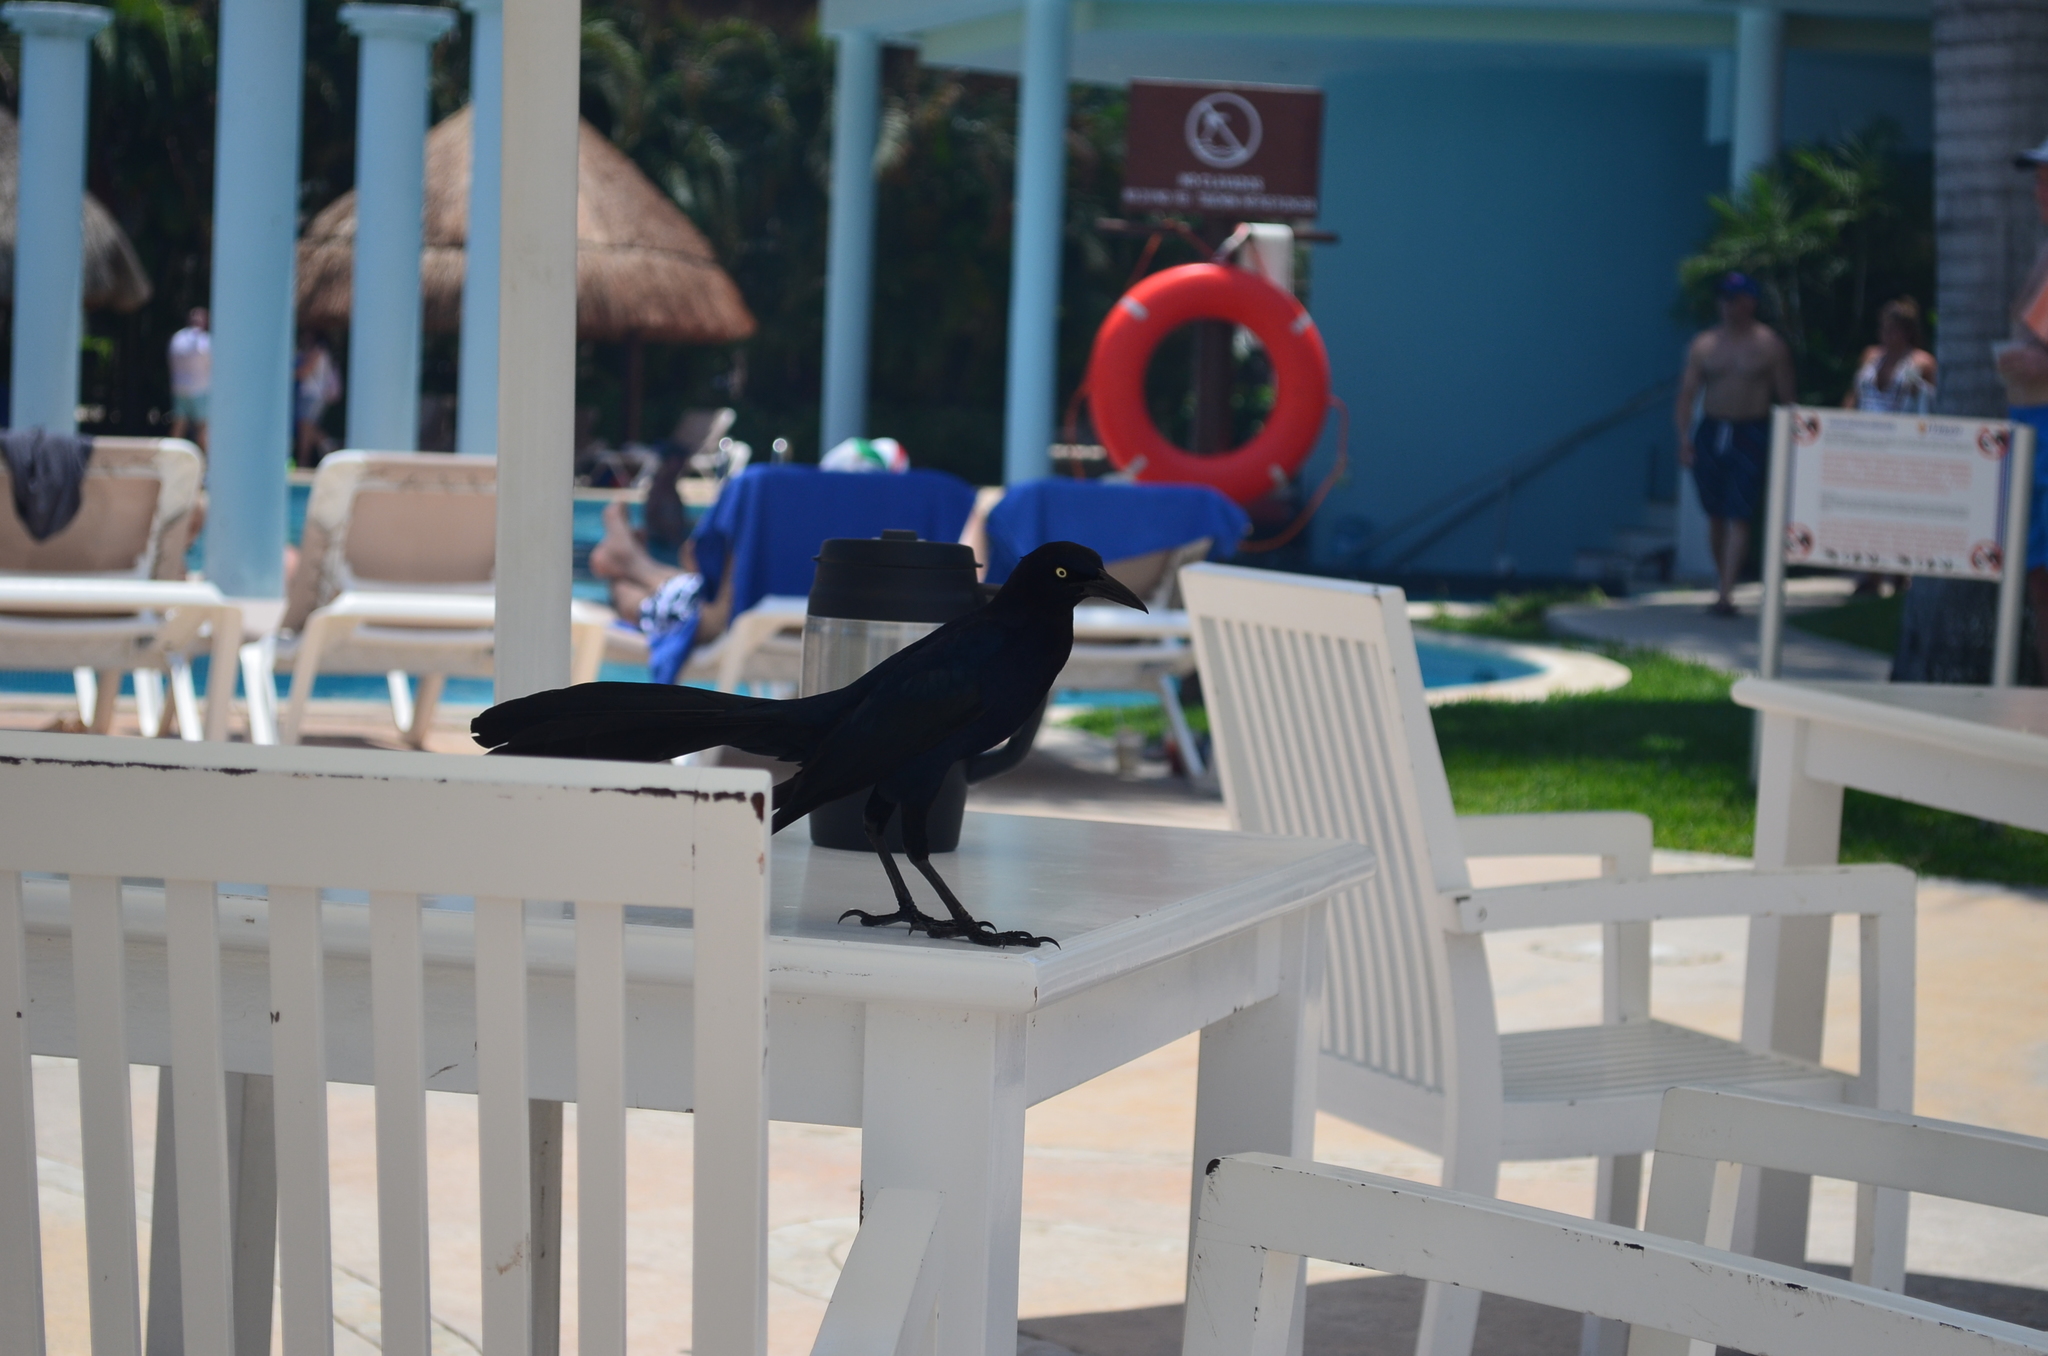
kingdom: Animalia
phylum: Chordata
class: Aves
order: Passeriformes
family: Icteridae
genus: Quiscalus
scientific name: Quiscalus mexicanus
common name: Great-tailed grackle
